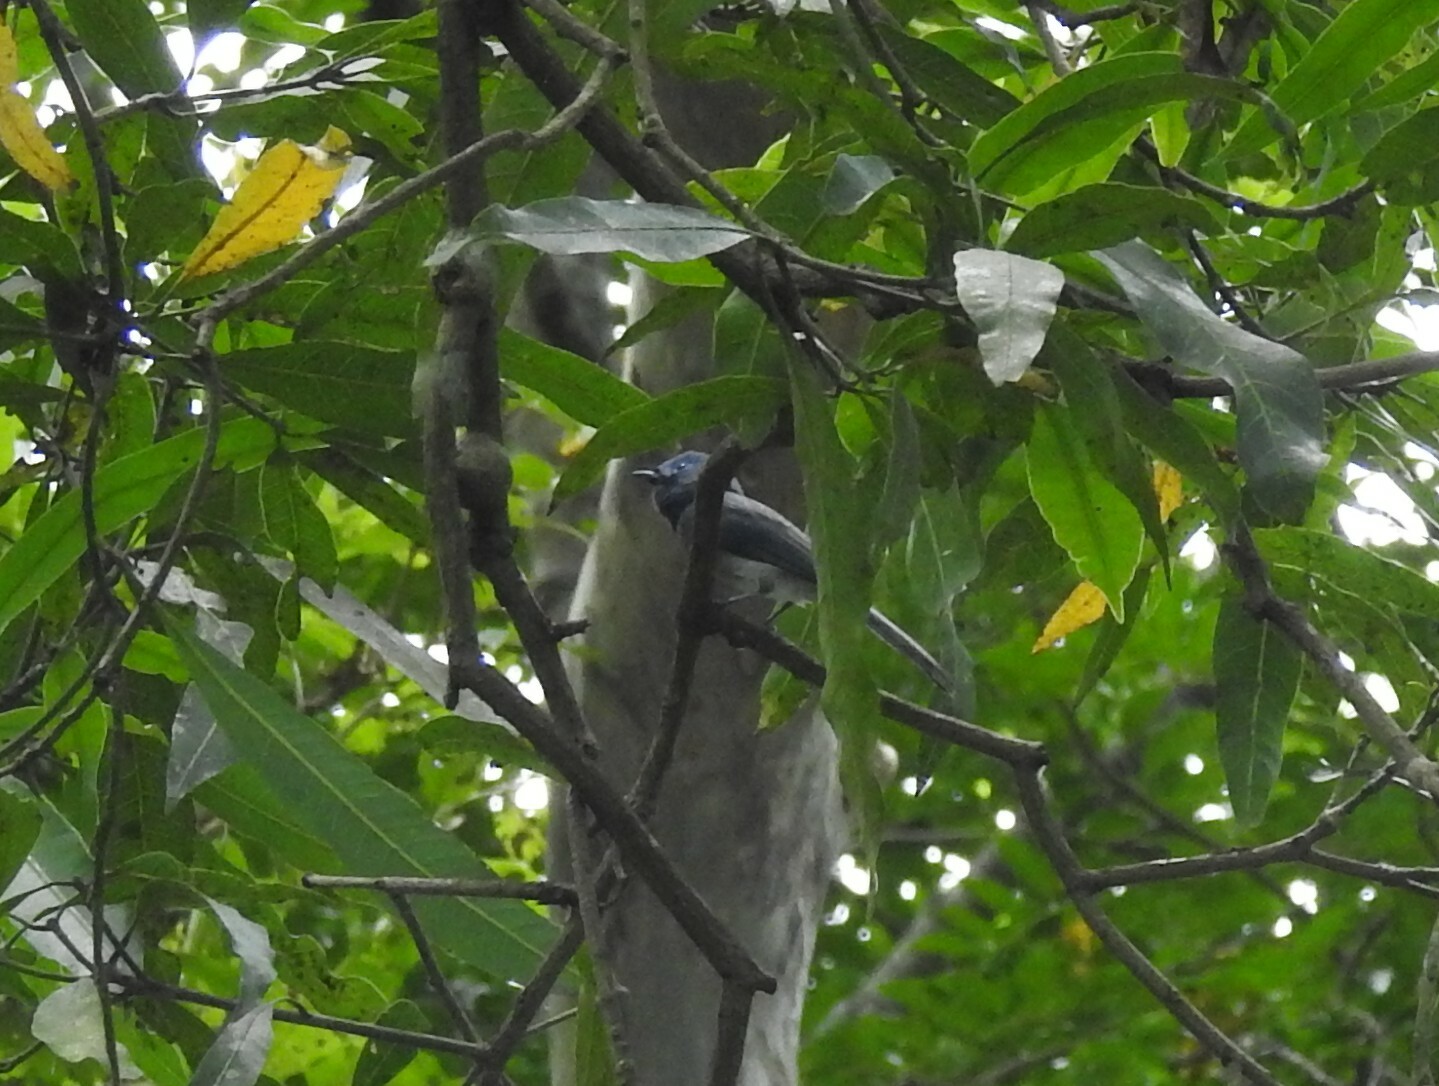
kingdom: Animalia
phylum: Chordata
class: Aves
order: Passeriformes
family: Monarchidae
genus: Hypothymis
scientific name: Hypothymis azurea
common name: Black-naped monarch
